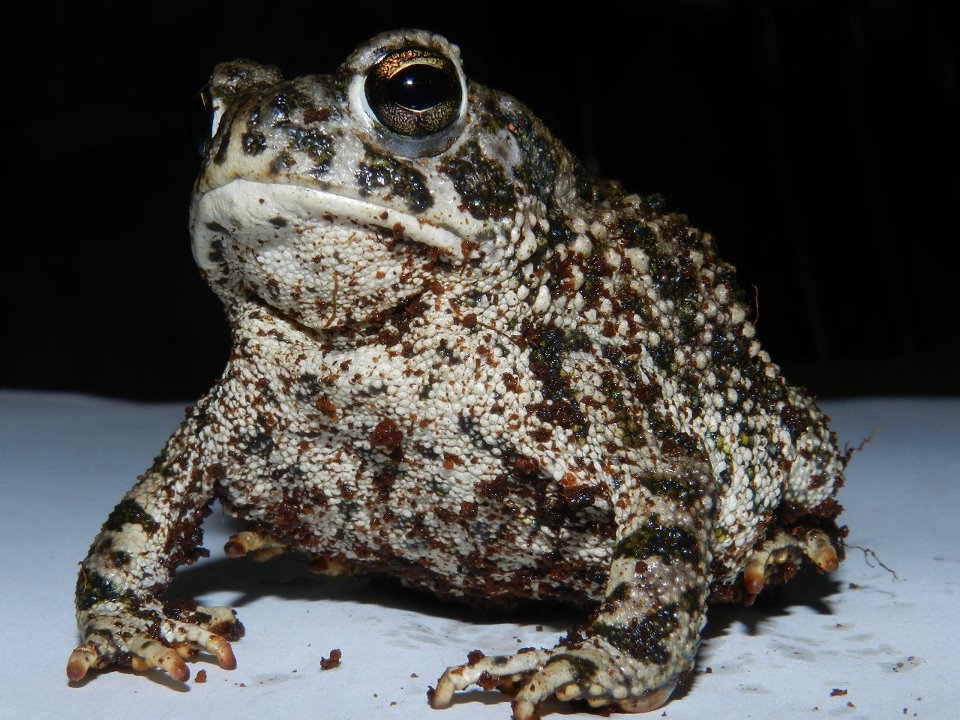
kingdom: Animalia
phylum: Chordata
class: Amphibia
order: Anura
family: Bufonidae
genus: Anaxyrus
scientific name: Anaxyrus compactilis
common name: Plateau toad
